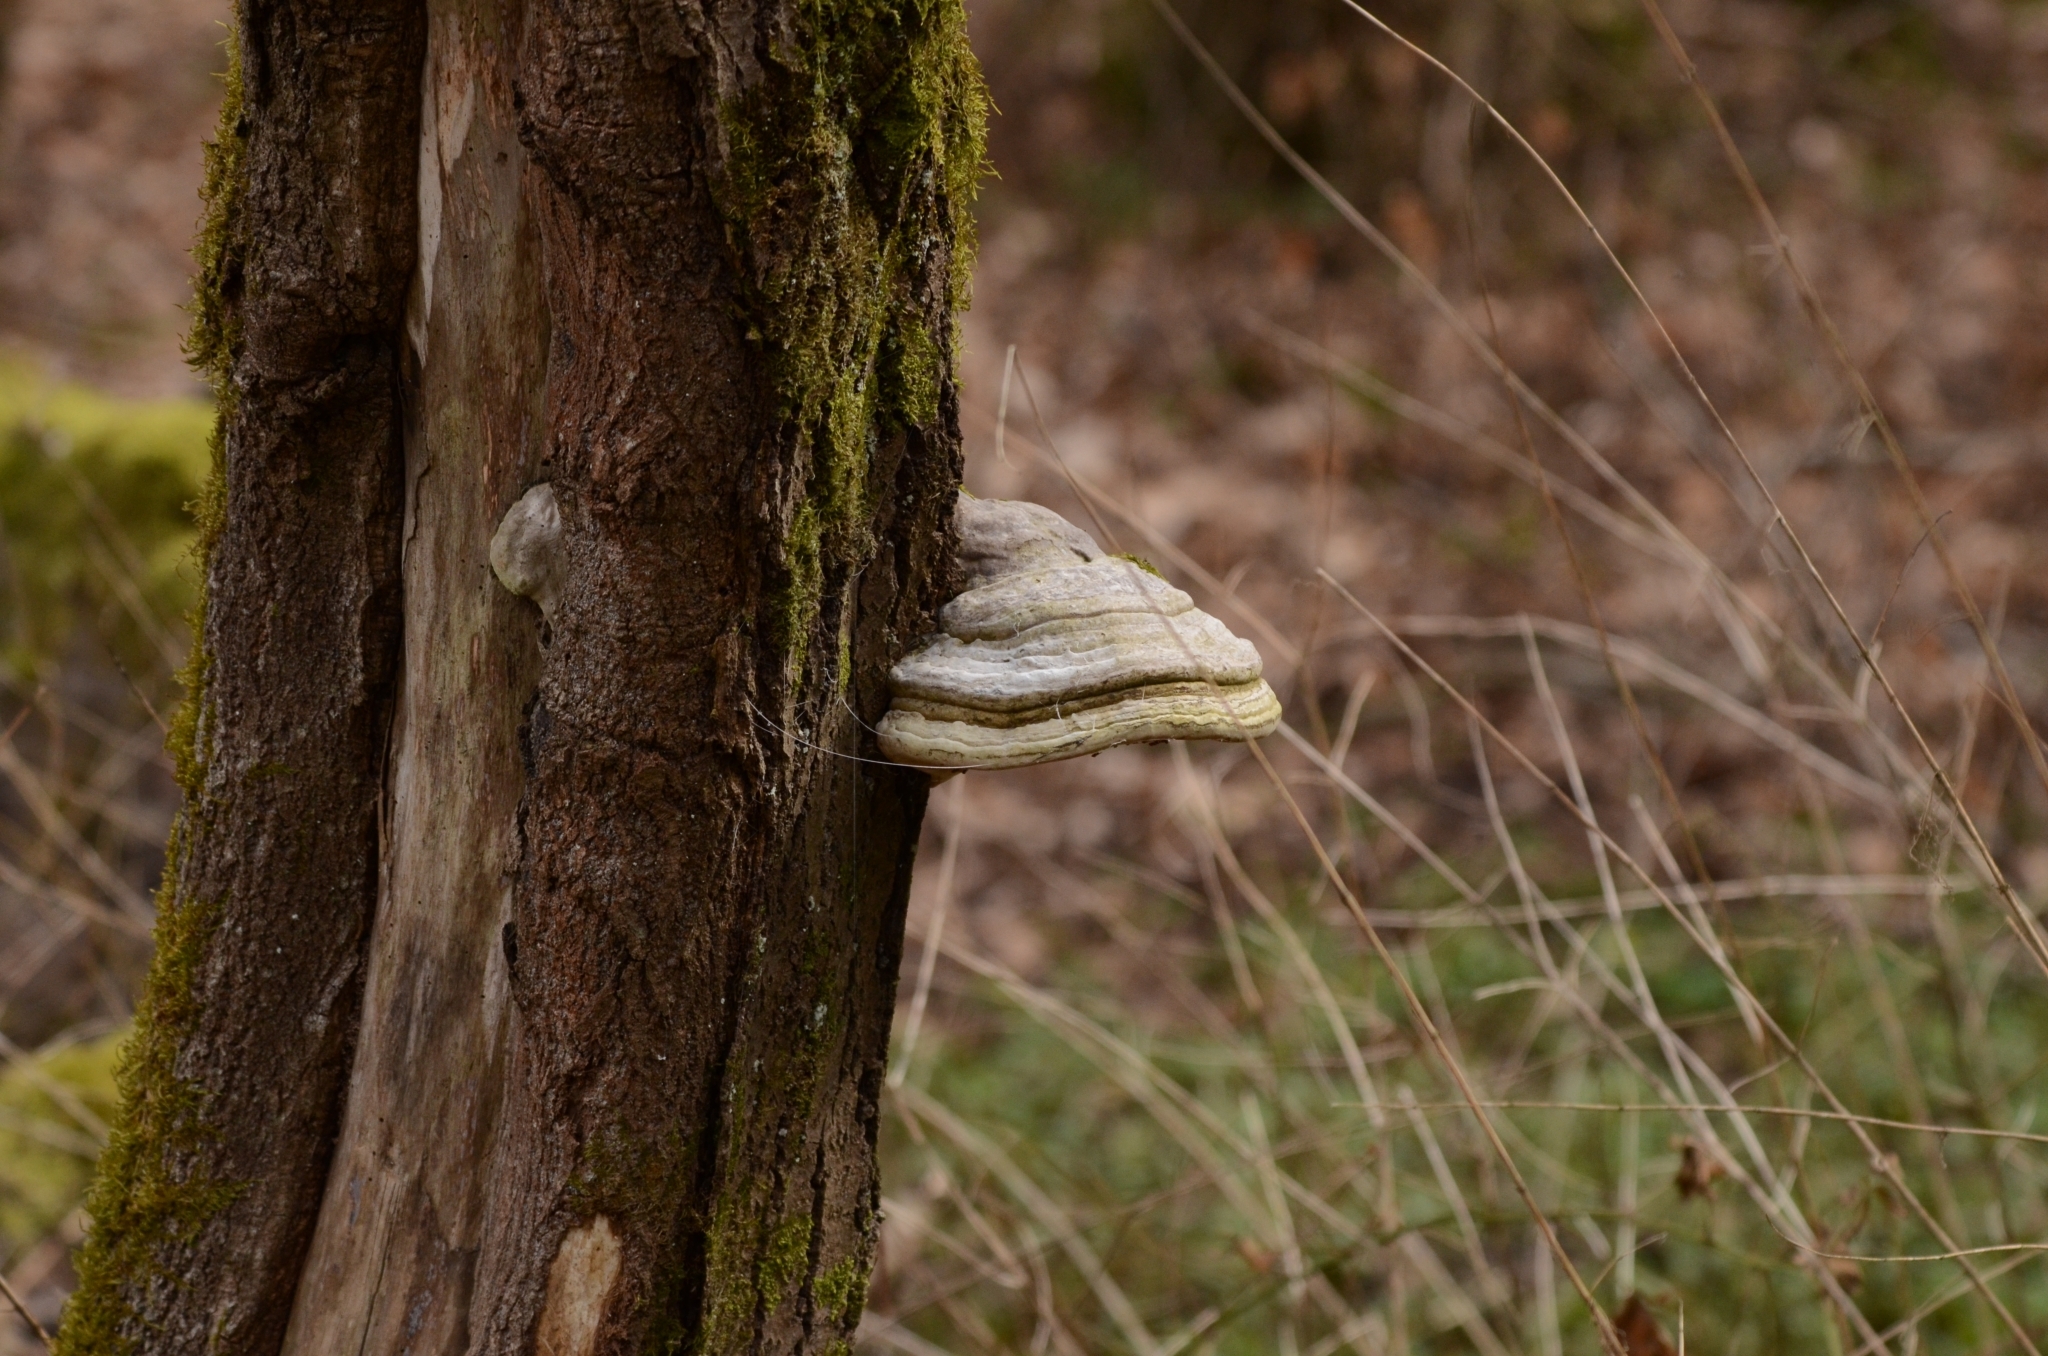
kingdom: Fungi
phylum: Basidiomycota
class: Agaricomycetes
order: Polyporales
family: Polyporaceae
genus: Fomes
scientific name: Fomes fomentarius
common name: Hoof fungus
